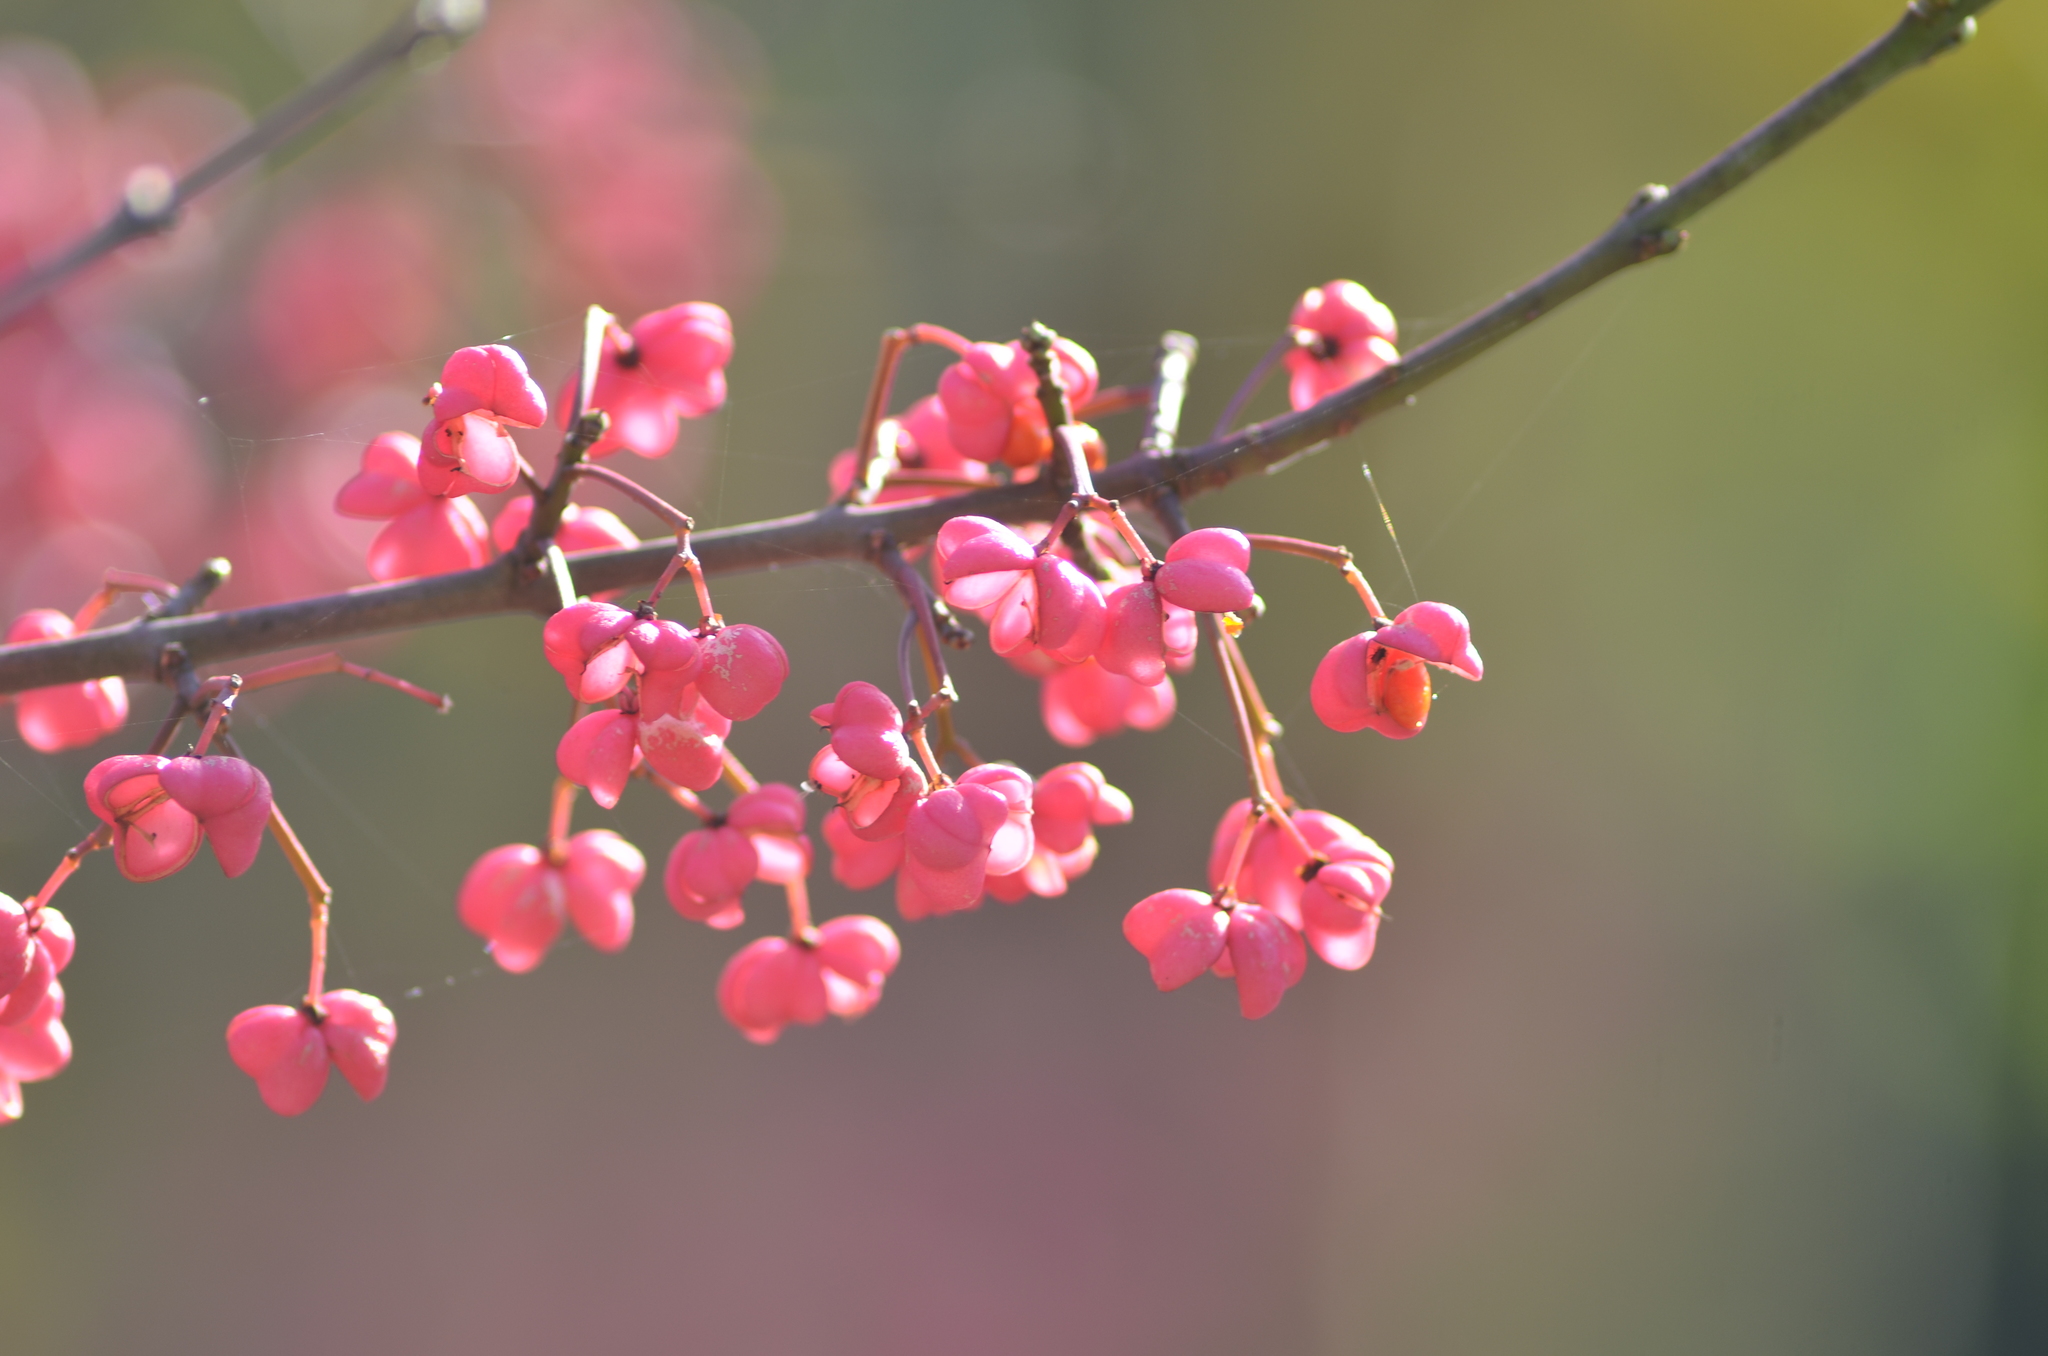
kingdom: Plantae
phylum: Tracheophyta
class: Magnoliopsida
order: Celastrales
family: Celastraceae
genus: Euonymus
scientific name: Euonymus europaeus
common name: Spindle
